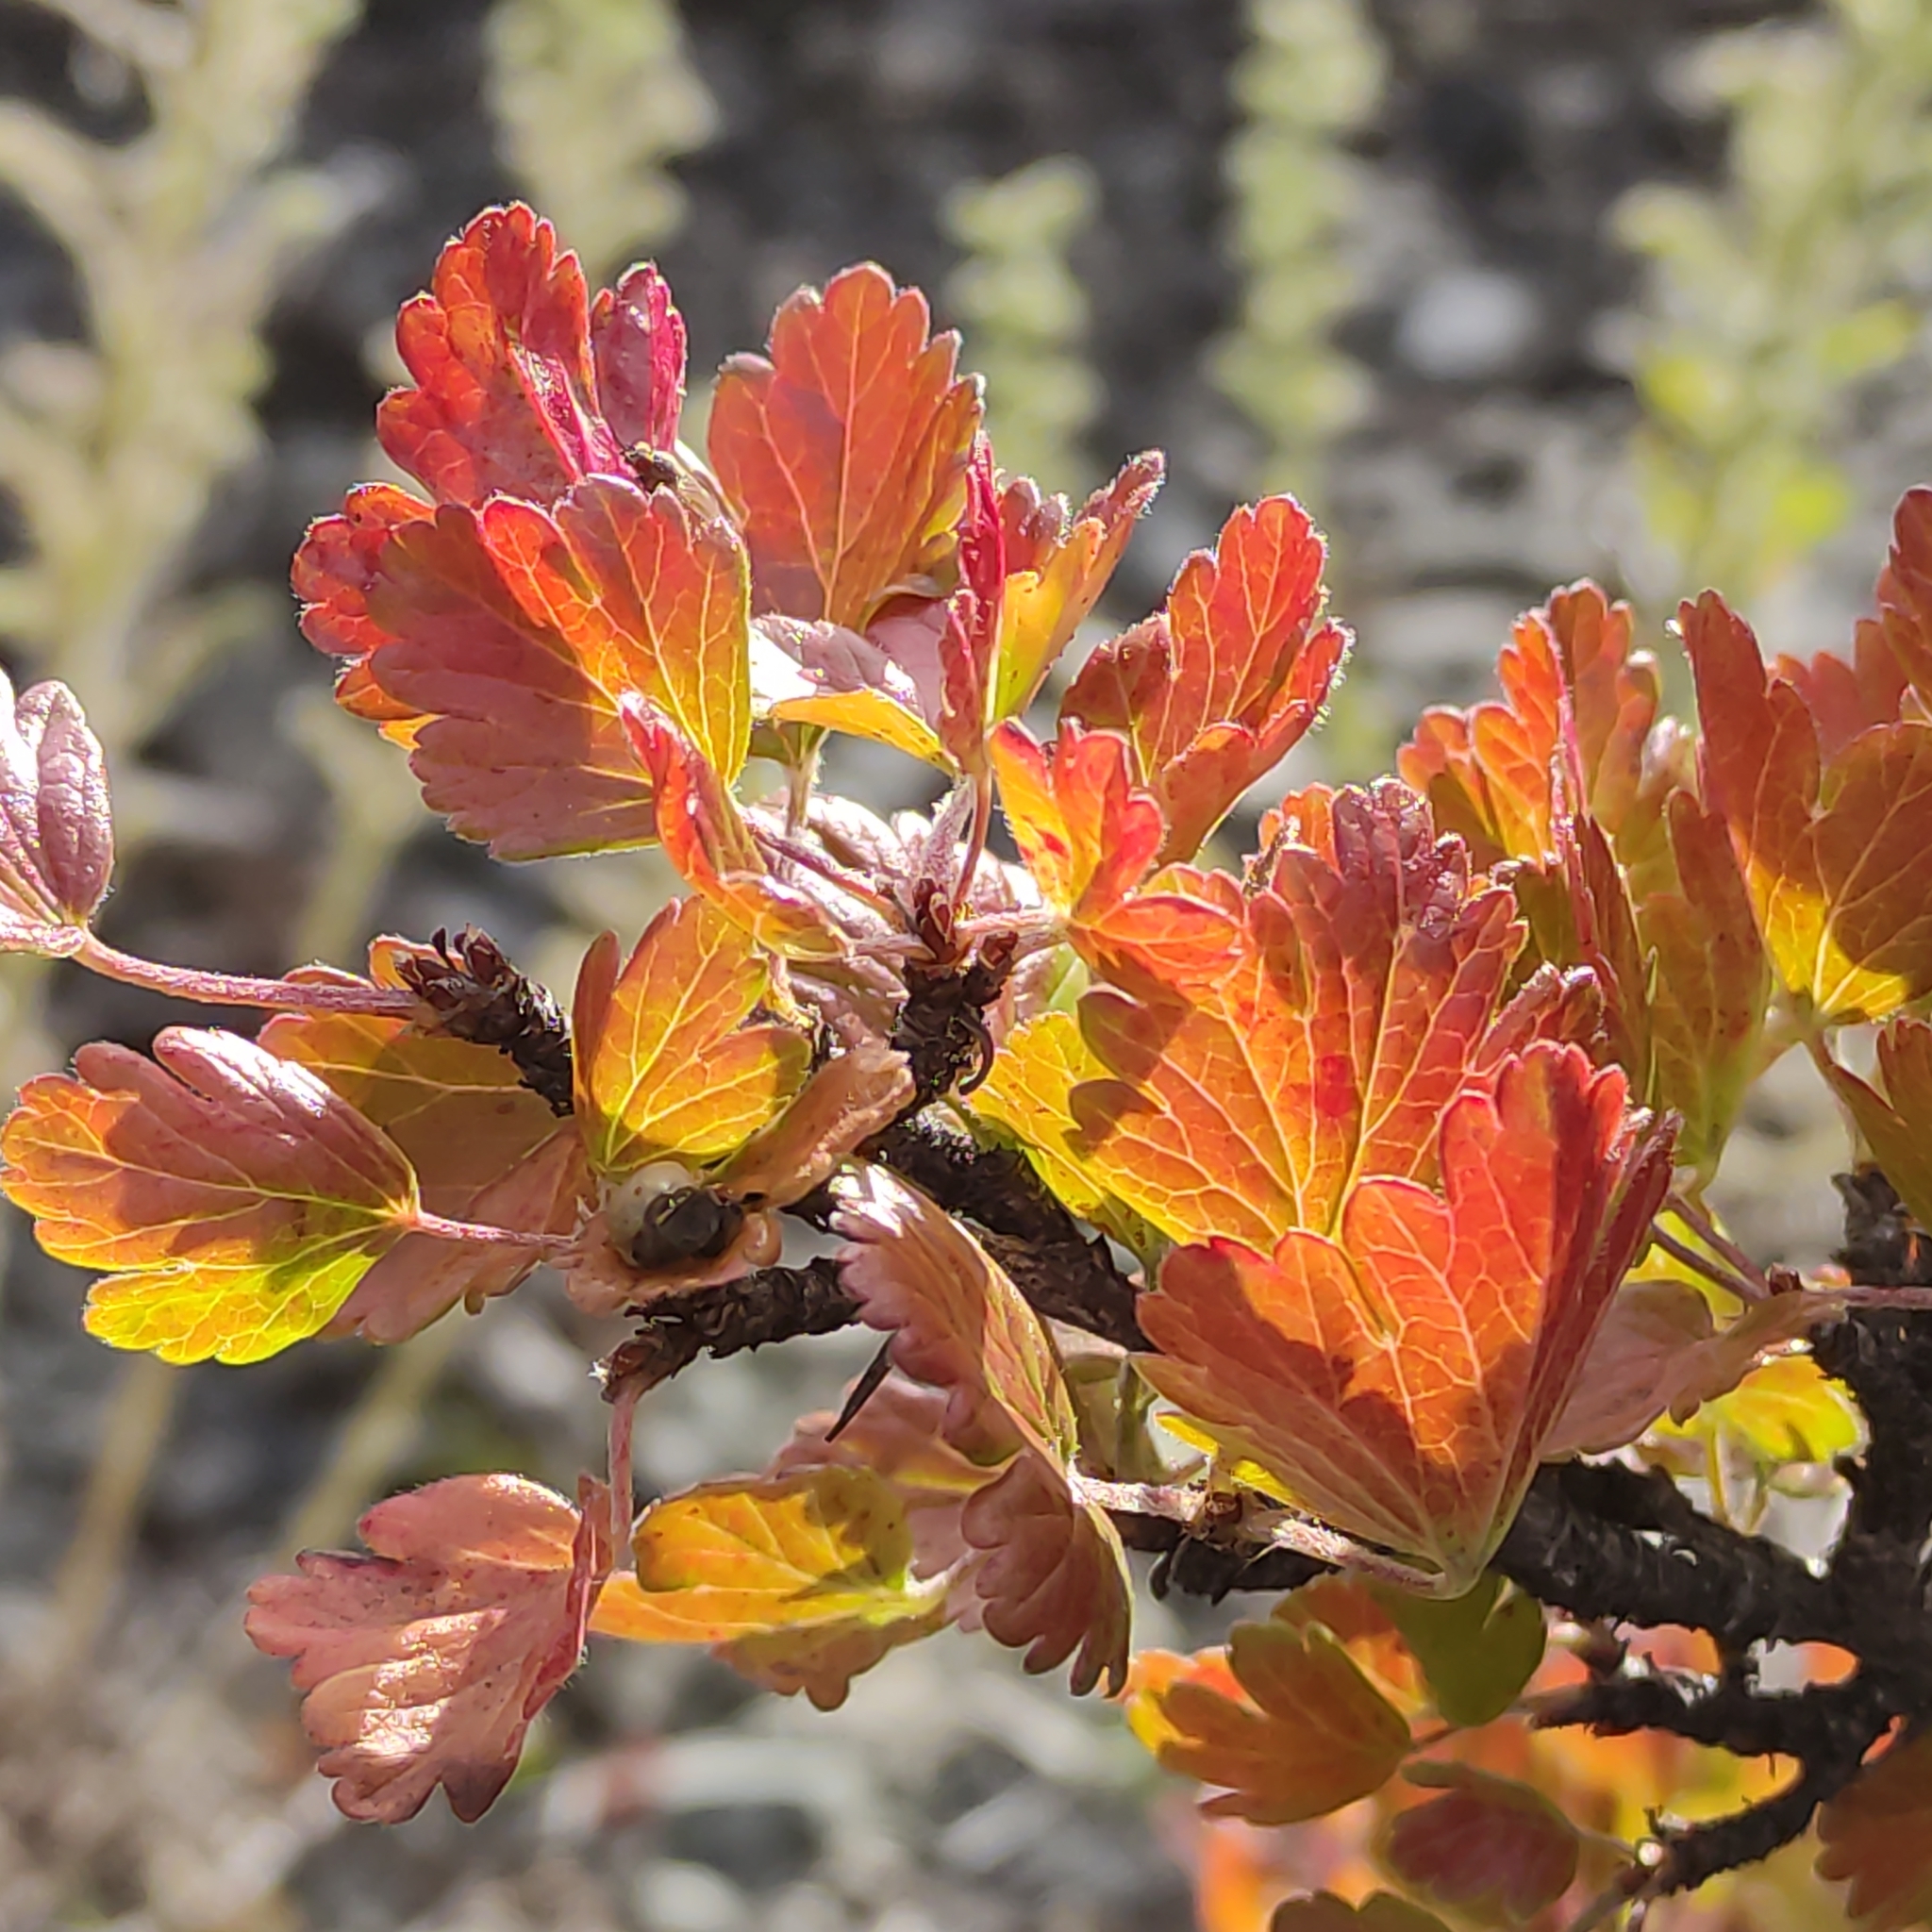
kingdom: Plantae
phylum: Tracheophyta
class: Magnoliopsida
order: Saxifragales
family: Grossulariaceae
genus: Ribes
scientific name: Ribes uva-crispa
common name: Gooseberry
